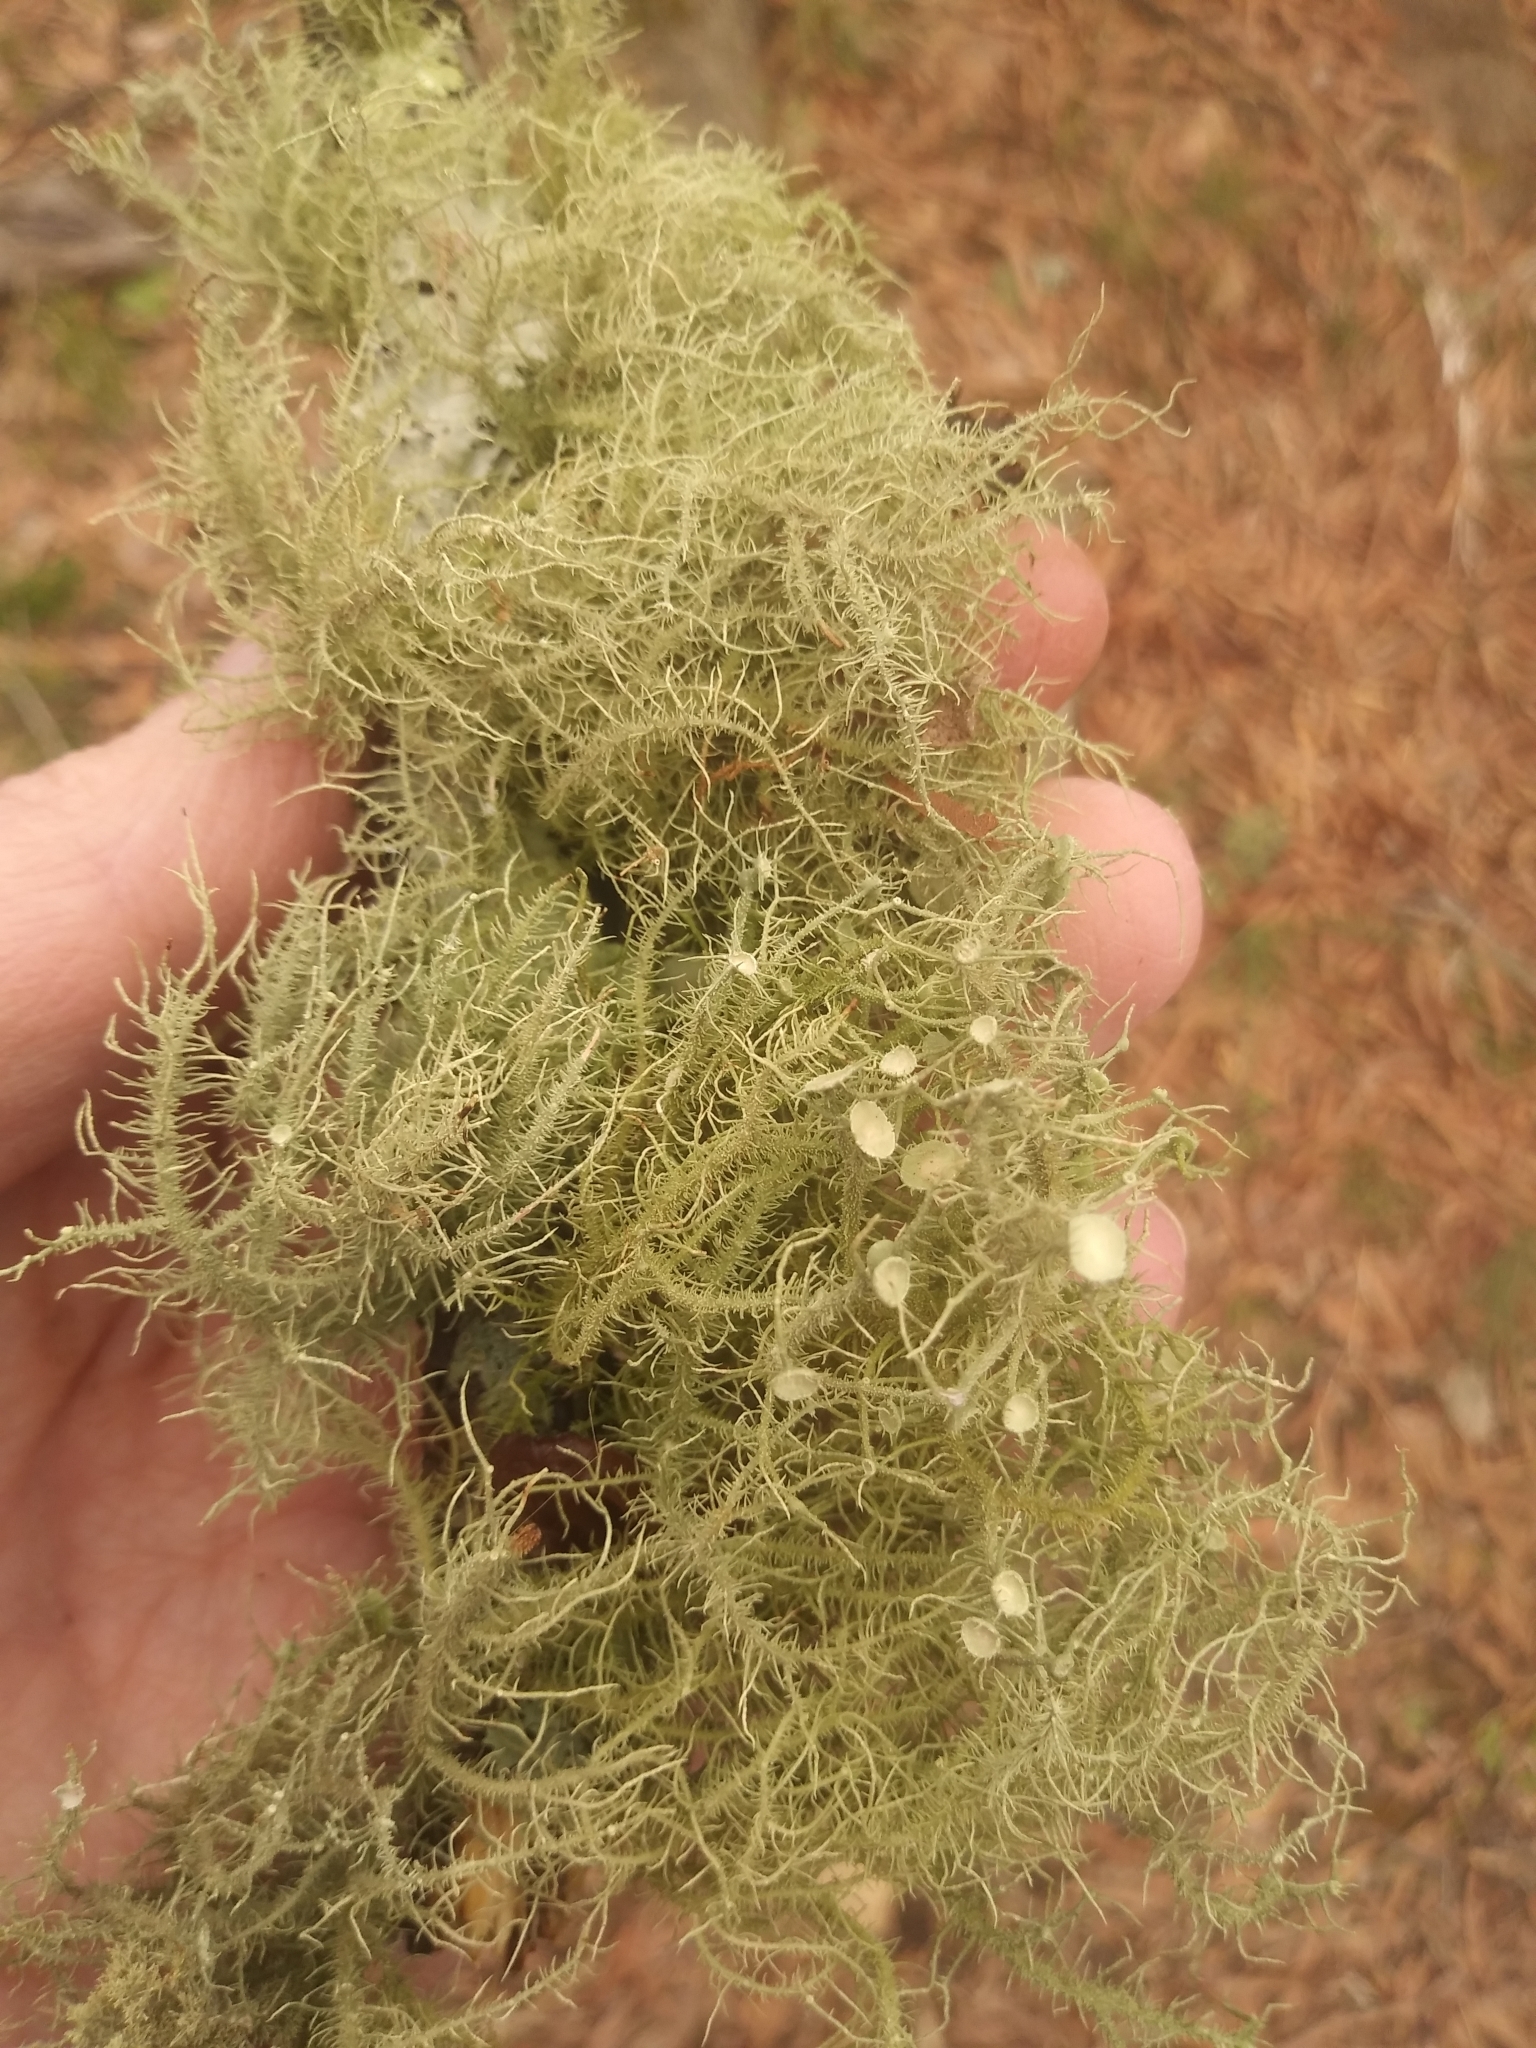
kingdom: Fungi
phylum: Ascomycota
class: Lecanoromycetes
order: Lecanorales
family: Parmeliaceae
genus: Usnea
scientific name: Usnea strigosa
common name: Bushy beard lichen
